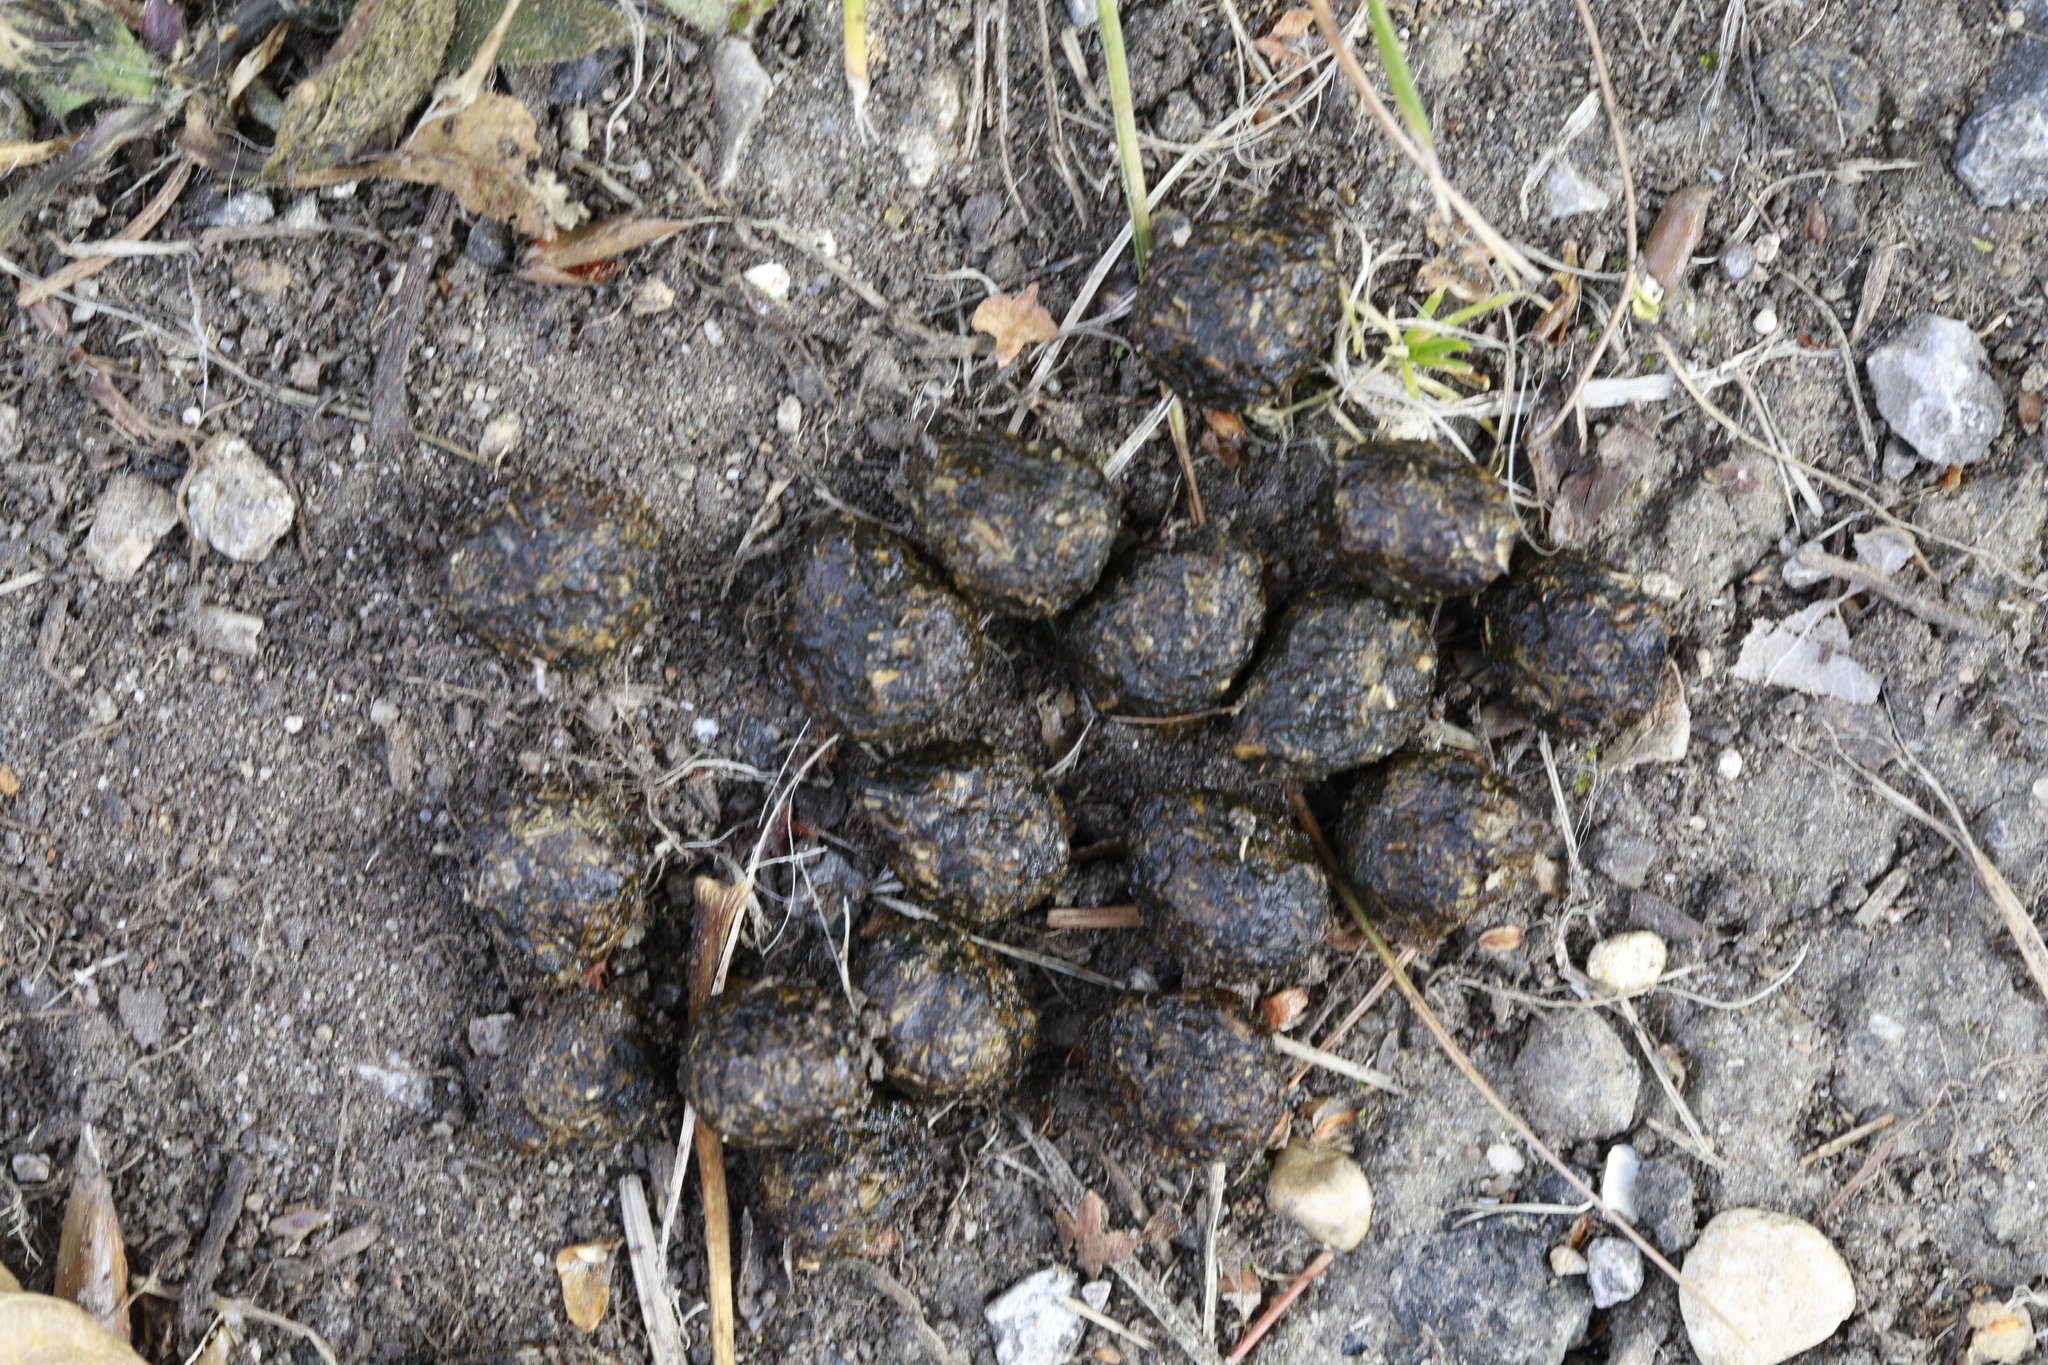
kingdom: Animalia
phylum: Chordata
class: Mammalia
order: Lagomorpha
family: Leporidae
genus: Oryctolagus
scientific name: Oryctolagus cuniculus
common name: European rabbit
